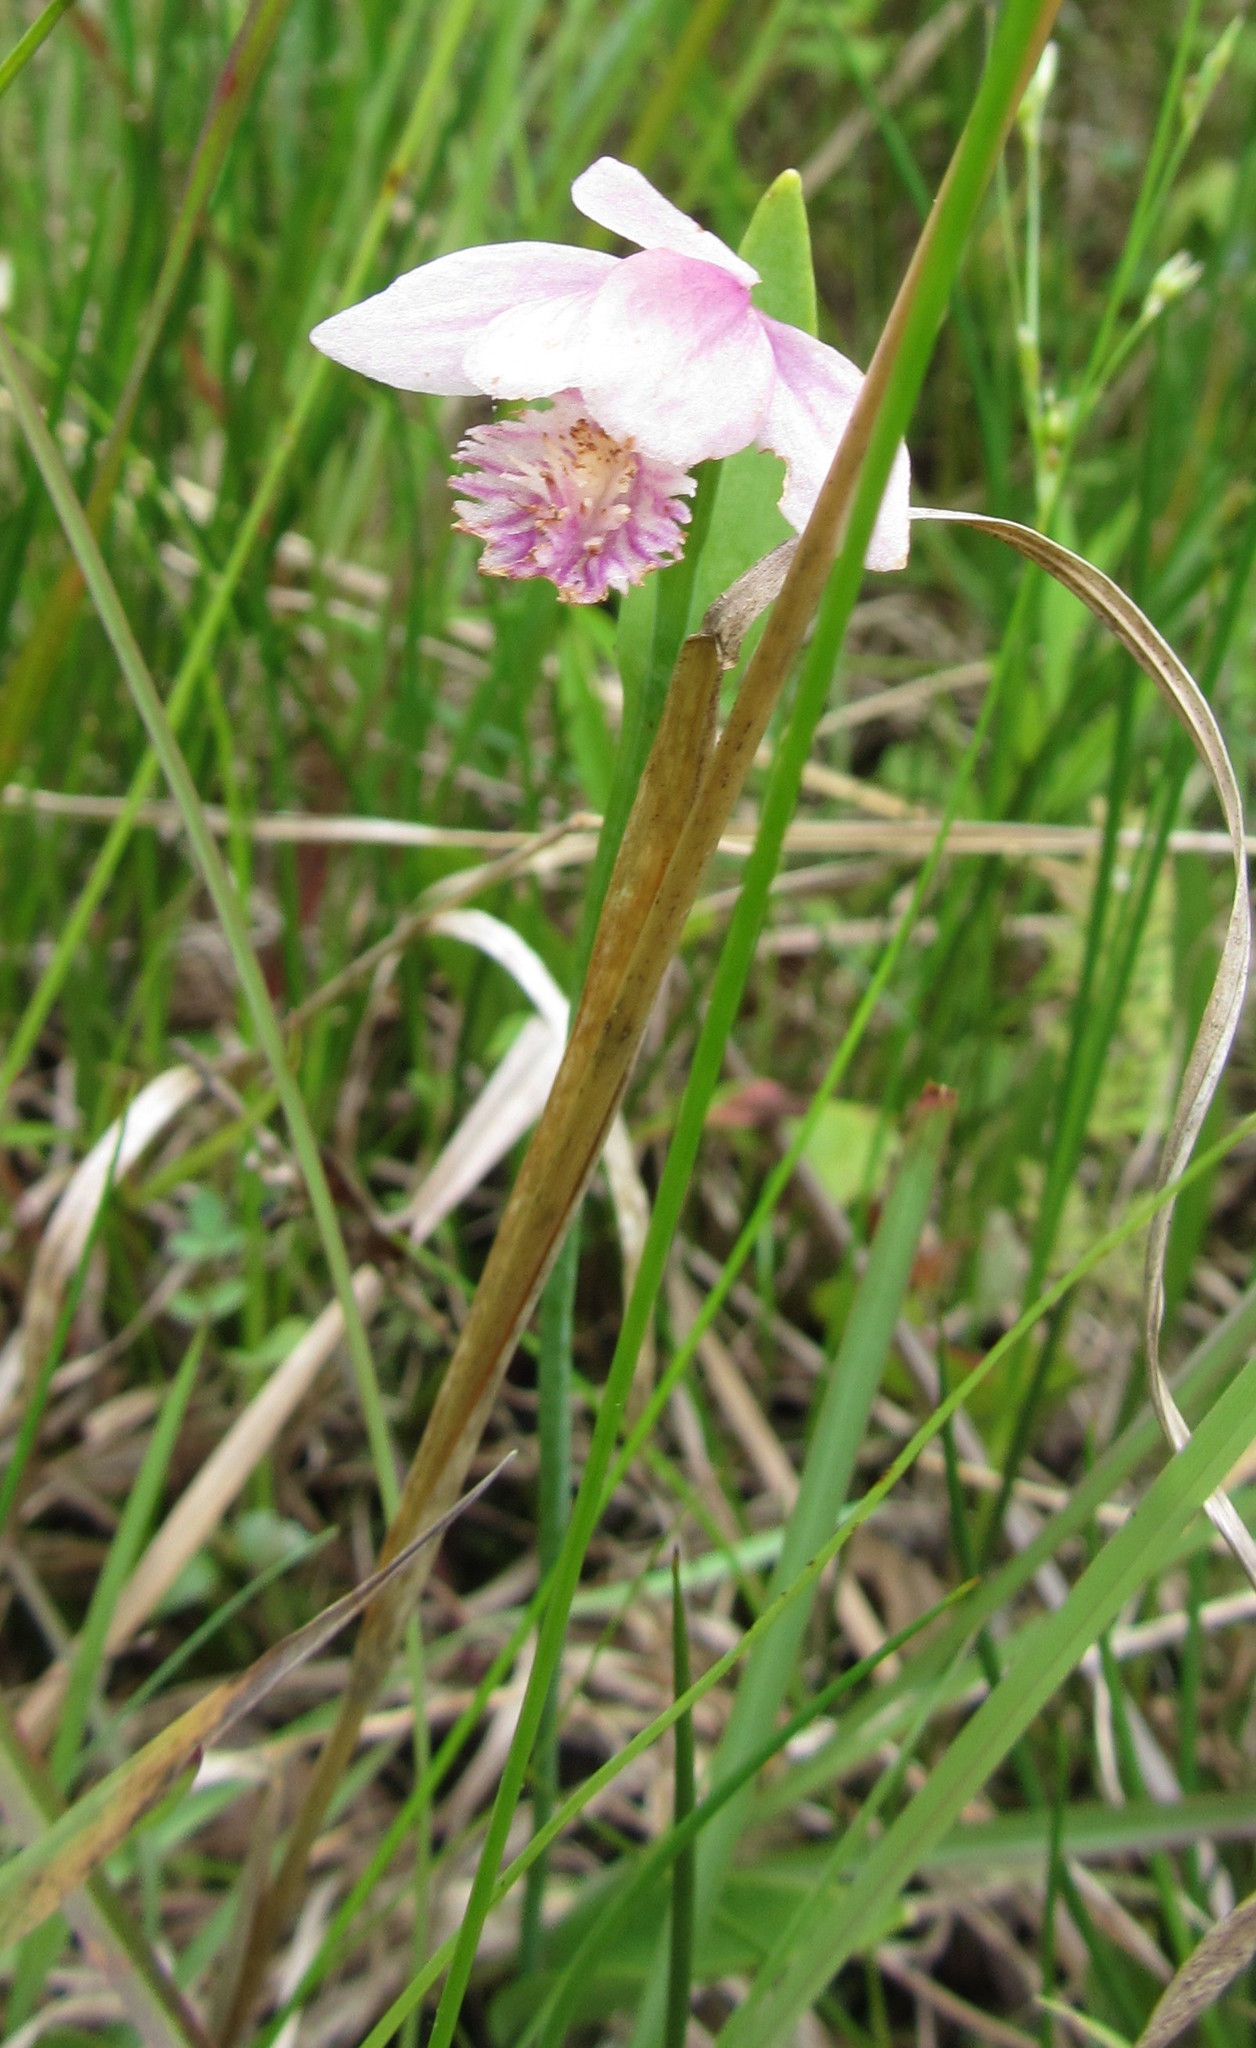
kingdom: Plantae
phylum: Tracheophyta
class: Liliopsida
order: Asparagales
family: Orchidaceae
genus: Pogonia
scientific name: Pogonia ophioglossoides
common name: Rose pogonia
